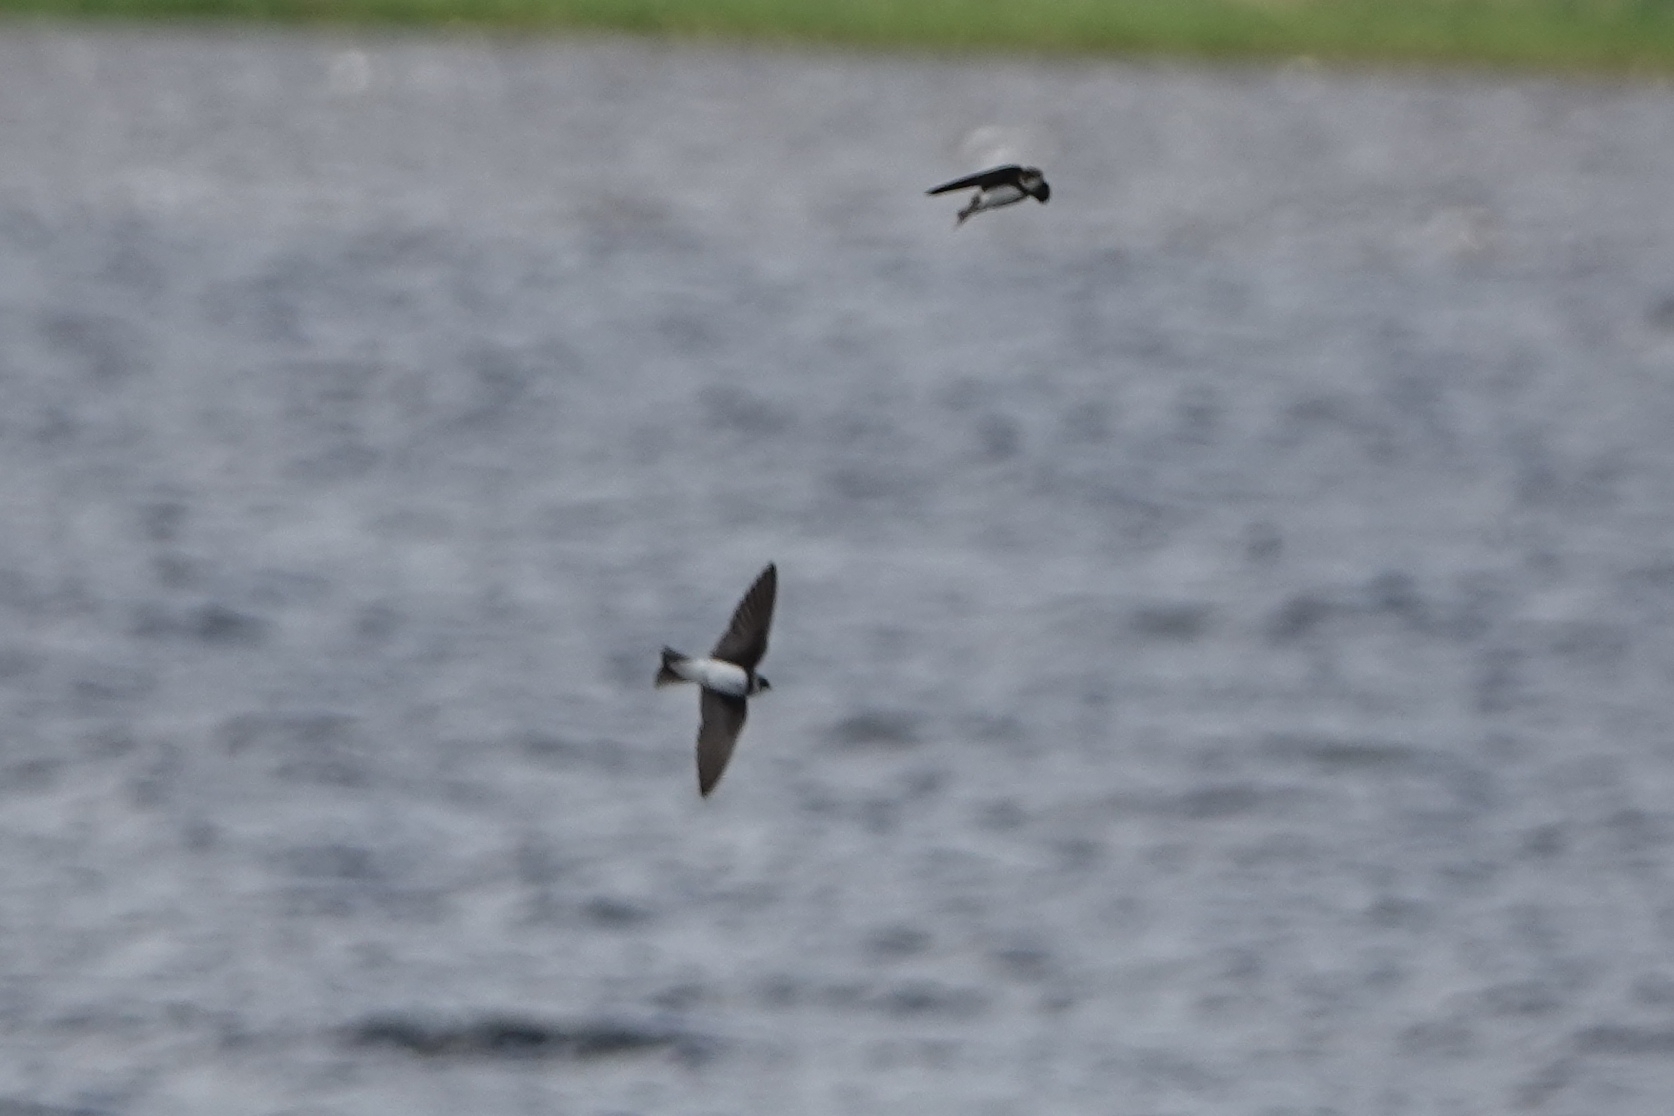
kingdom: Animalia
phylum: Chordata
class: Aves
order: Passeriformes
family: Hirundinidae
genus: Riparia
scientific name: Riparia riparia
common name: Sand martin
